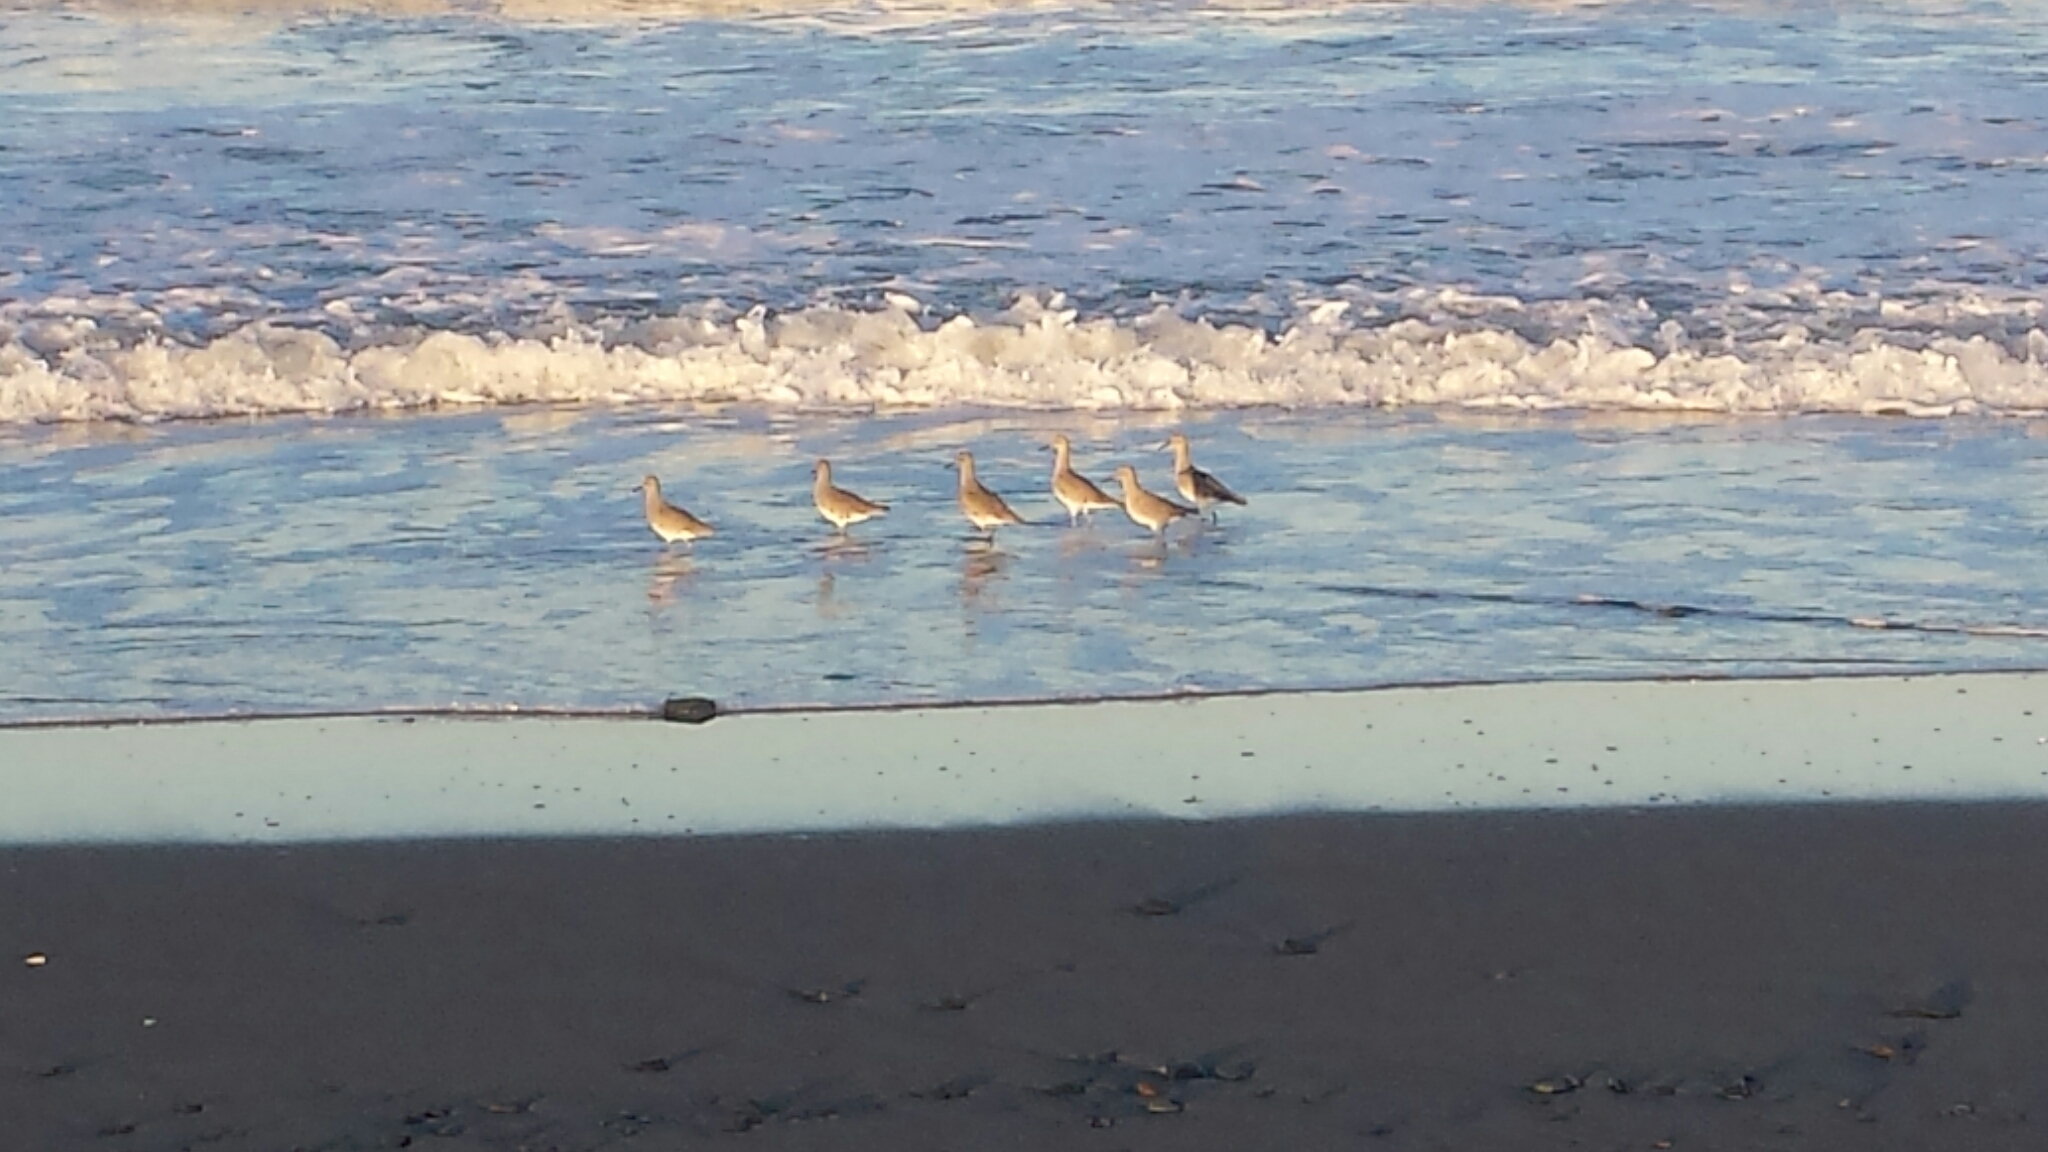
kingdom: Animalia
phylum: Chordata
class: Aves
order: Charadriiformes
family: Scolopacidae
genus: Tringa
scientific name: Tringa semipalmata
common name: Willet
